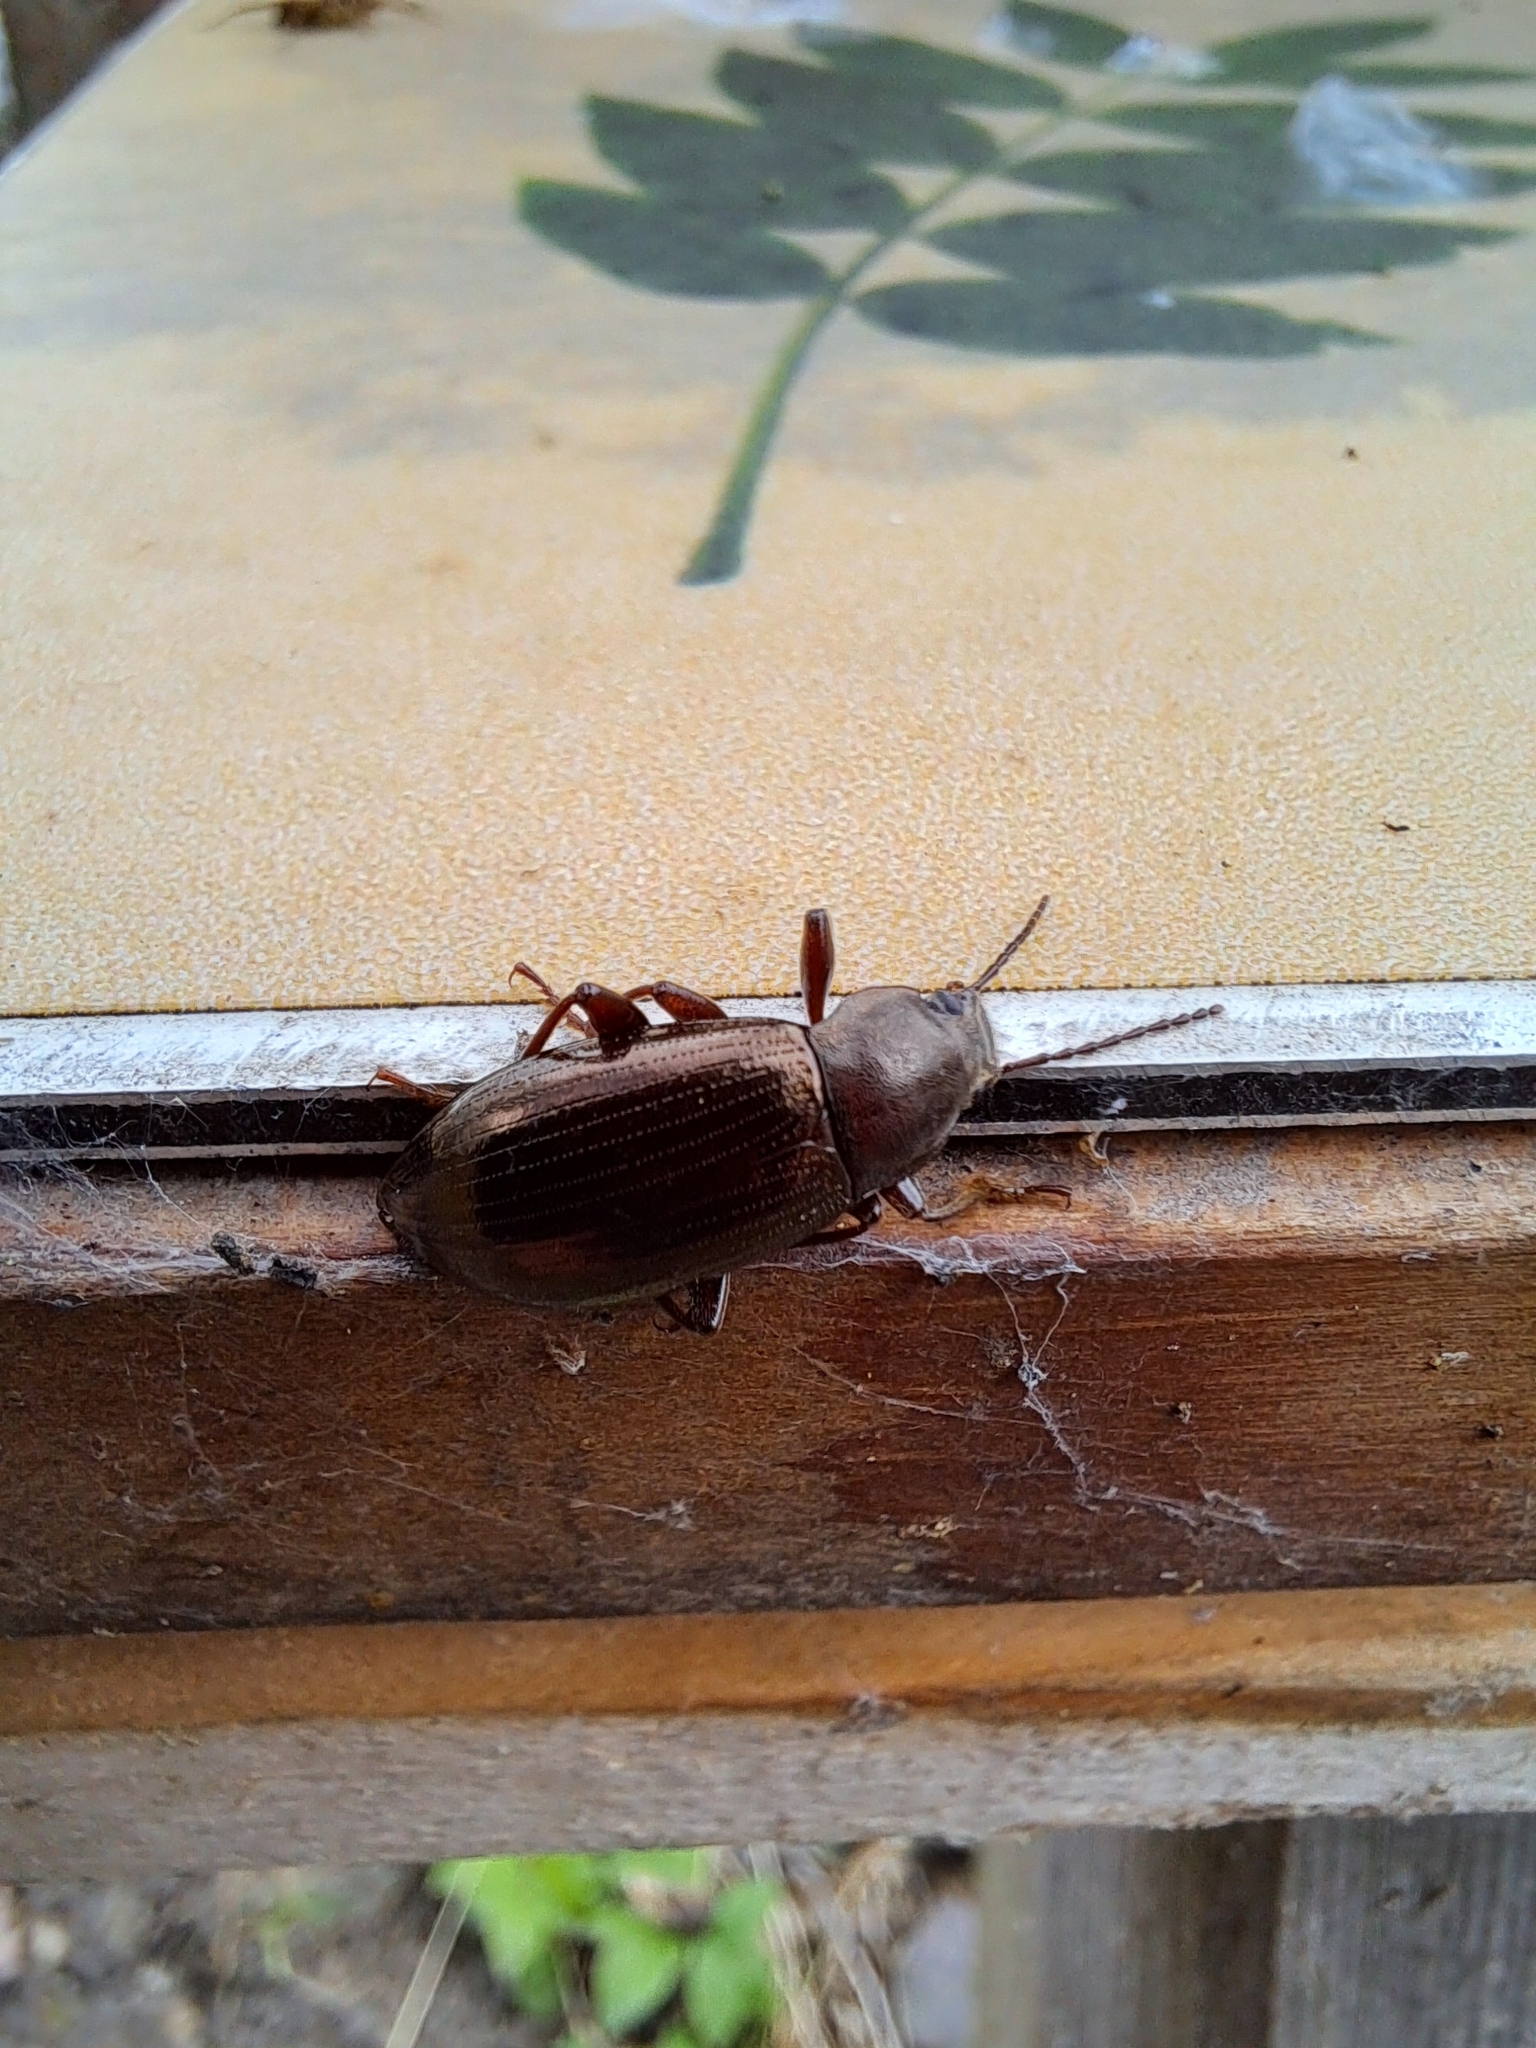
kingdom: Animalia
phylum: Arthropoda
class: Insecta
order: Coleoptera
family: Tenebrionidae
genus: Stenomax
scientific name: Stenomax aeneus
